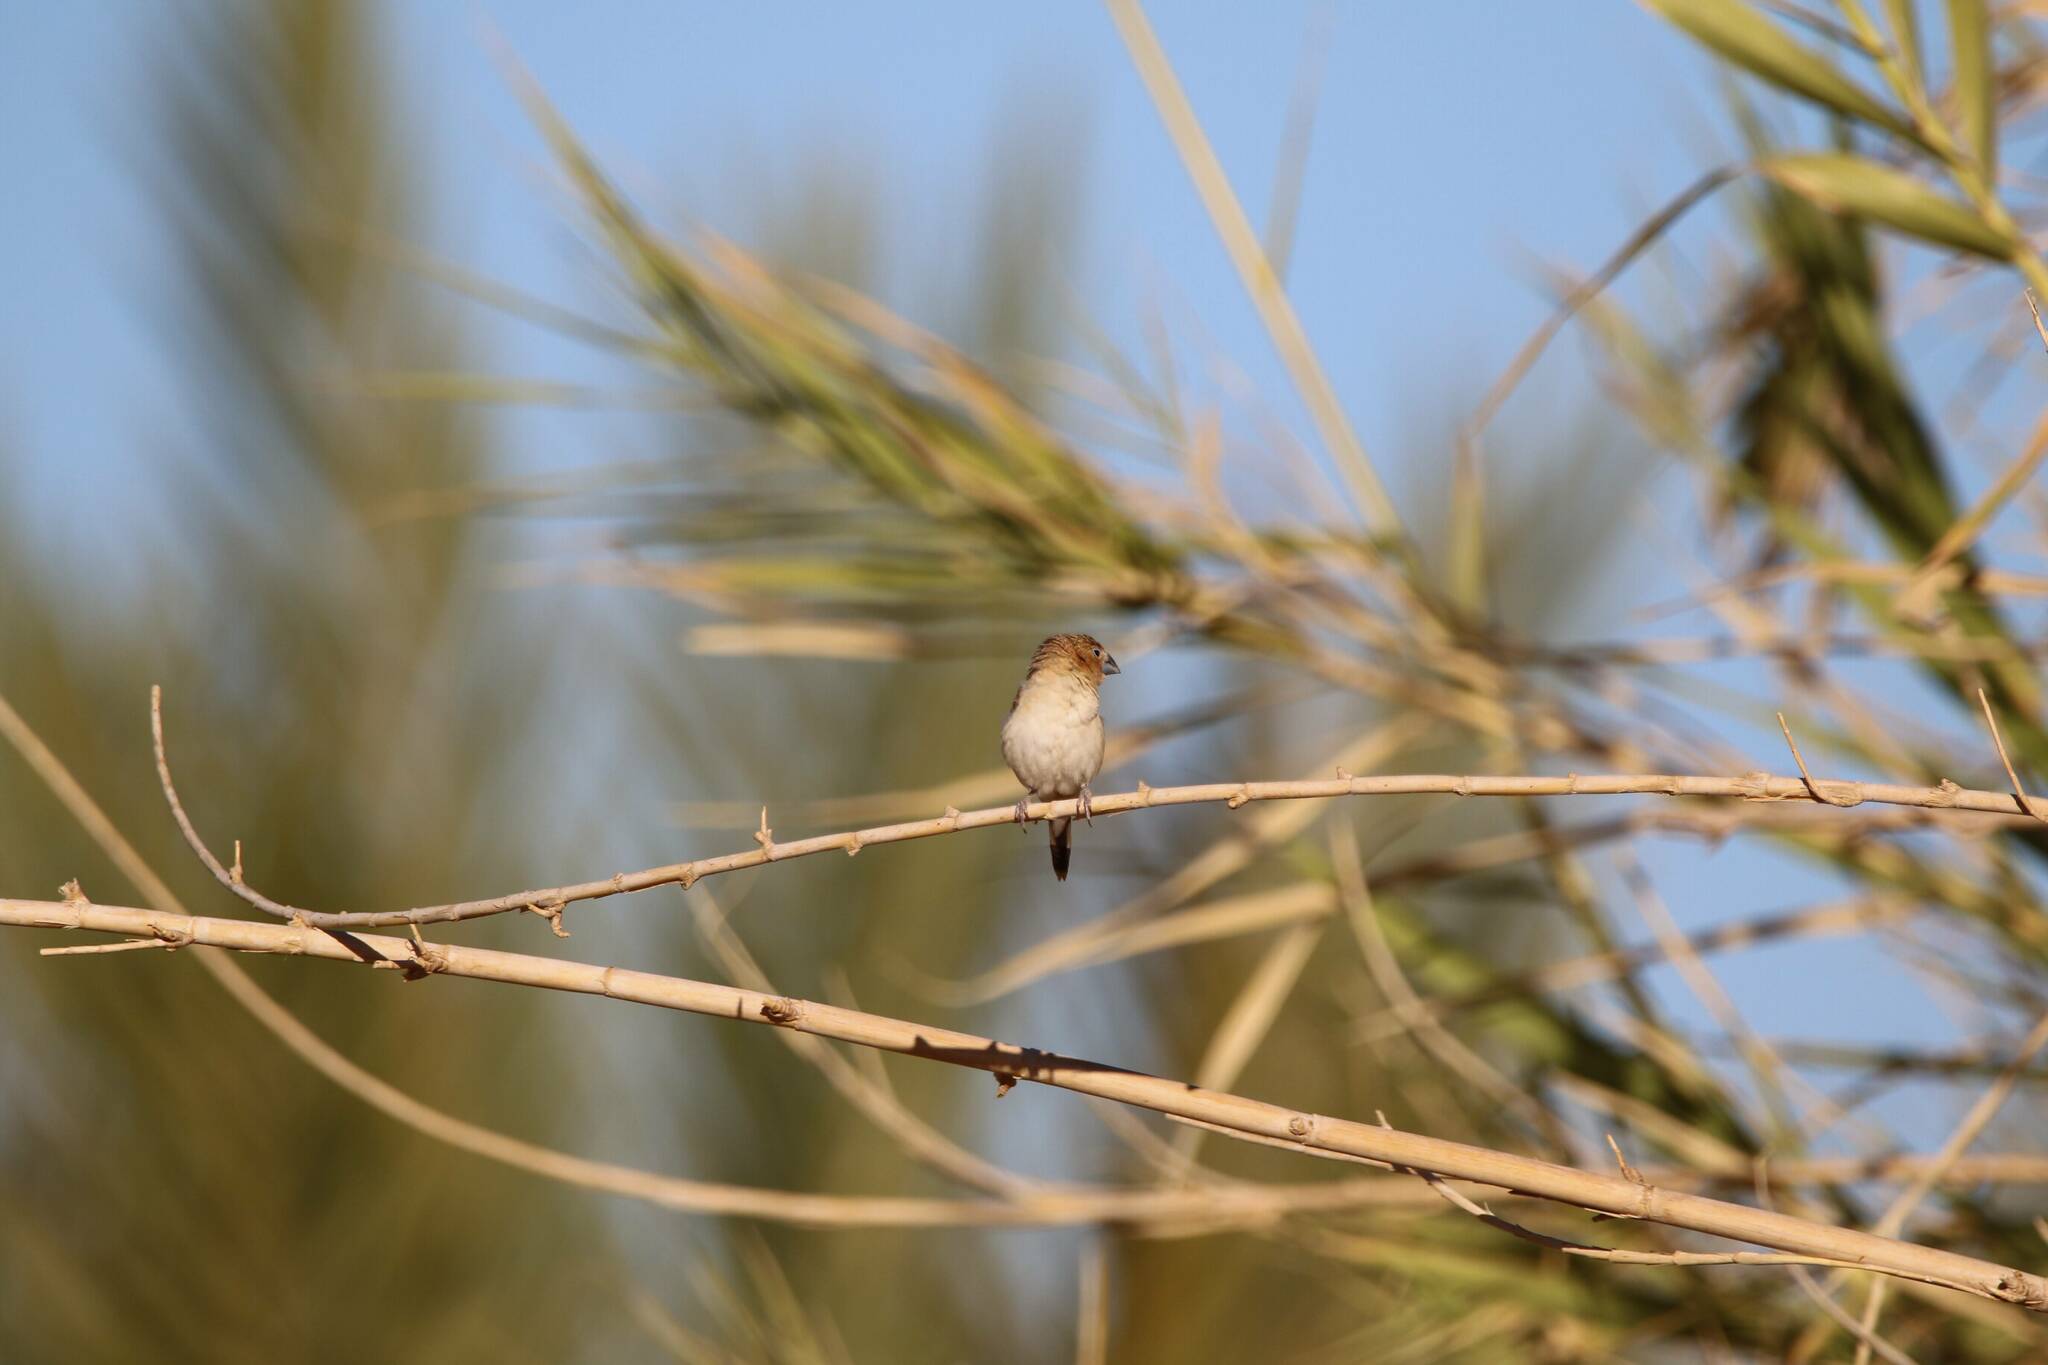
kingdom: Animalia
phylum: Chordata
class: Aves
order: Passeriformes
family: Estrildidae
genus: Euodice
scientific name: Euodice cantans
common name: African silverbill
